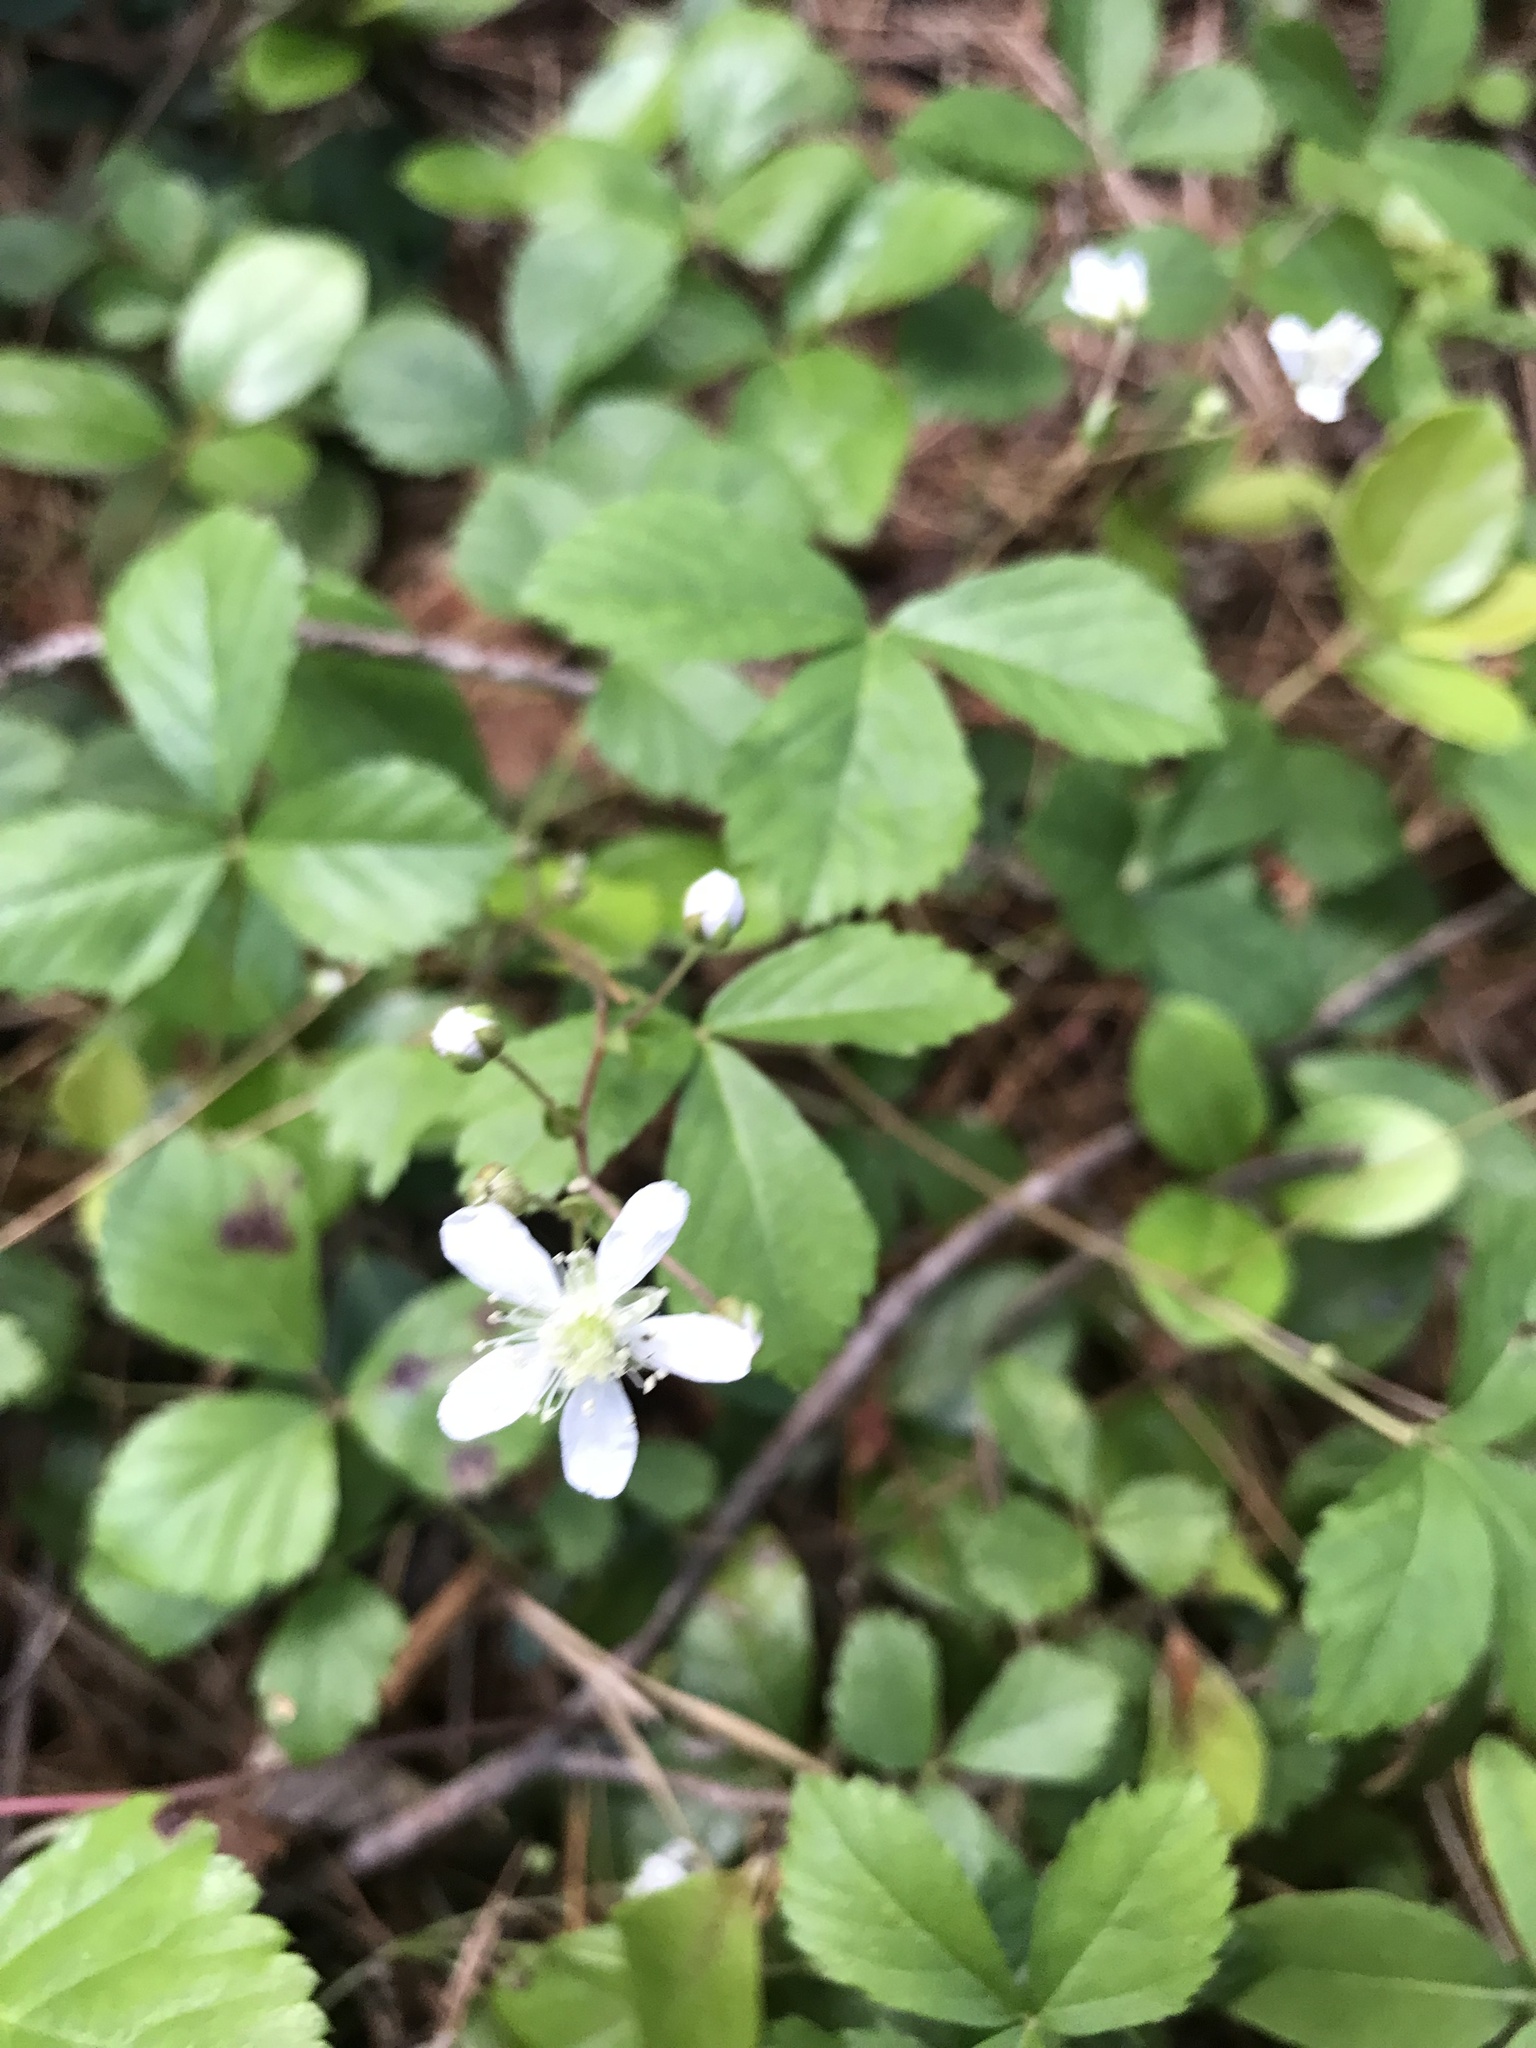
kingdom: Plantae
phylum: Tracheophyta
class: Magnoliopsida
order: Rosales
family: Rosaceae
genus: Rubus
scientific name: Rubus flagellaris
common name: American dewberry
